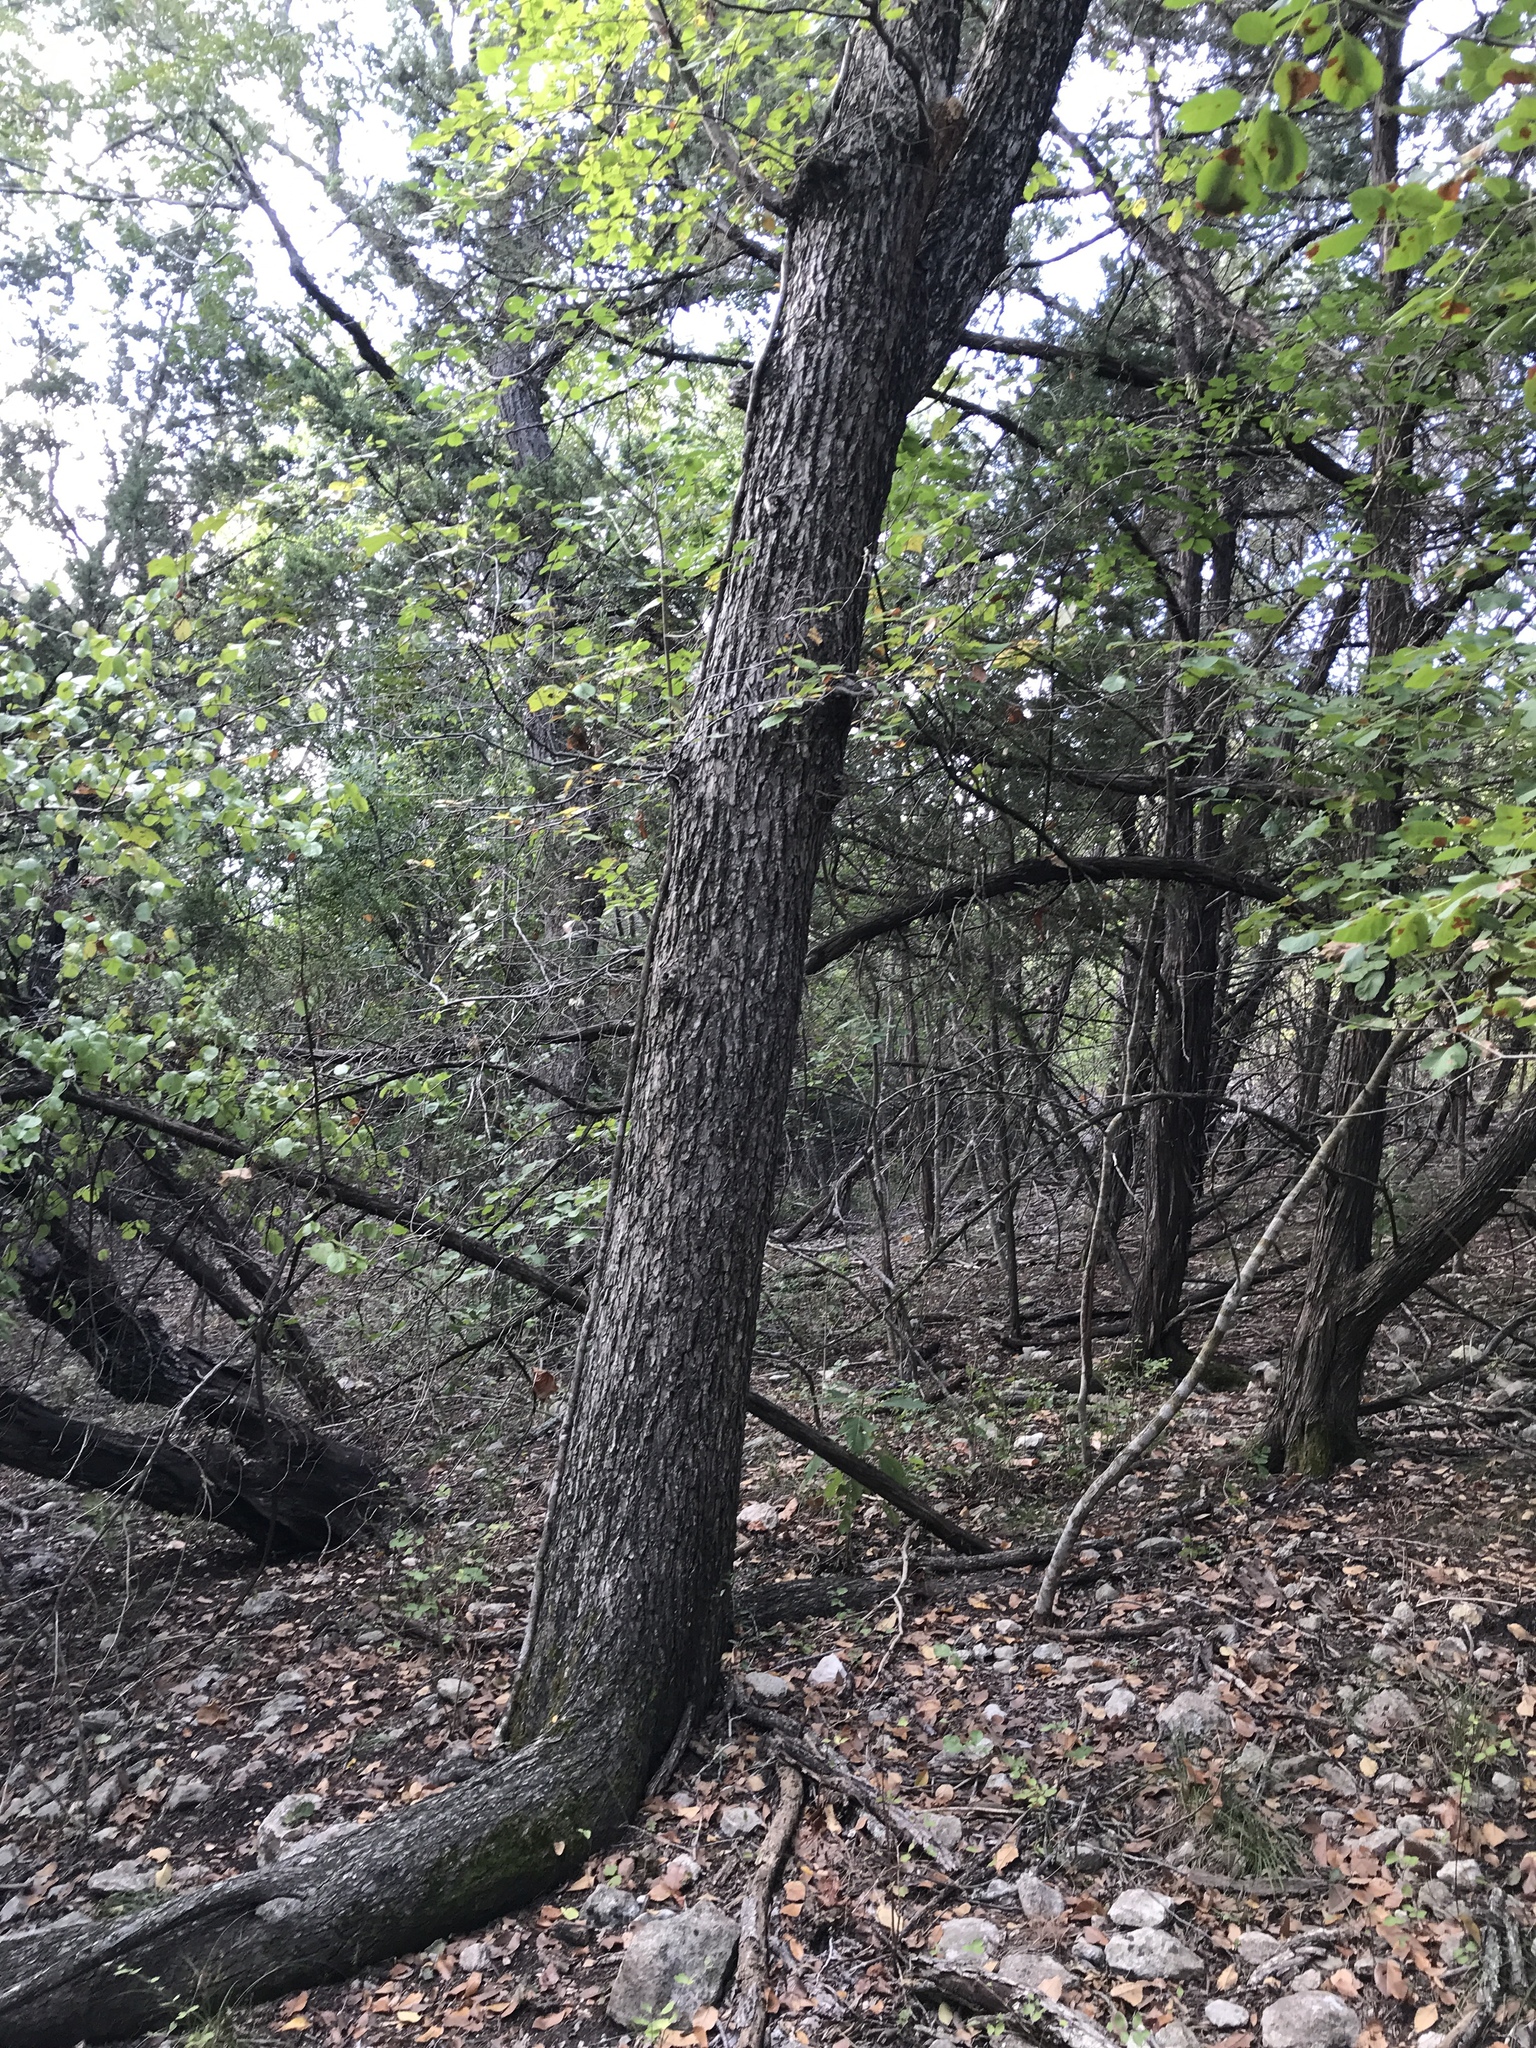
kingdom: Plantae
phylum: Tracheophyta
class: Magnoliopsida
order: Rosales
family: Ulmaceae
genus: Ulmus
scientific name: Ulmus americana
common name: American elm
